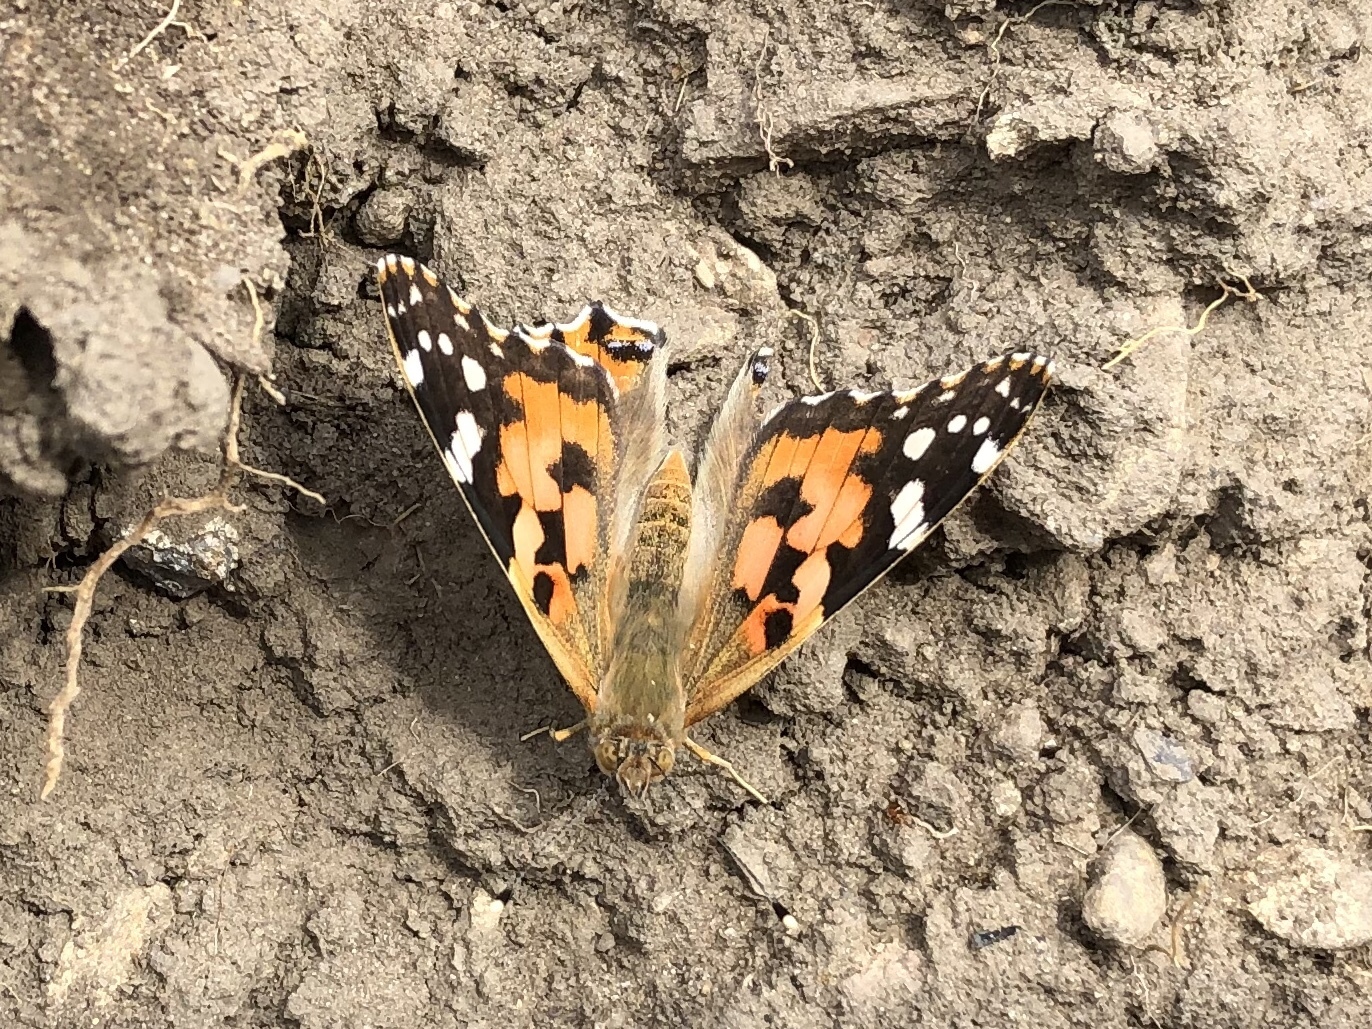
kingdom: Animalia
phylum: Arthropoda
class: Insecta
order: Lepidoptera
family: Nymphalidae
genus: Vanessa
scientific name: Vanessa cardui
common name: Painted lady
